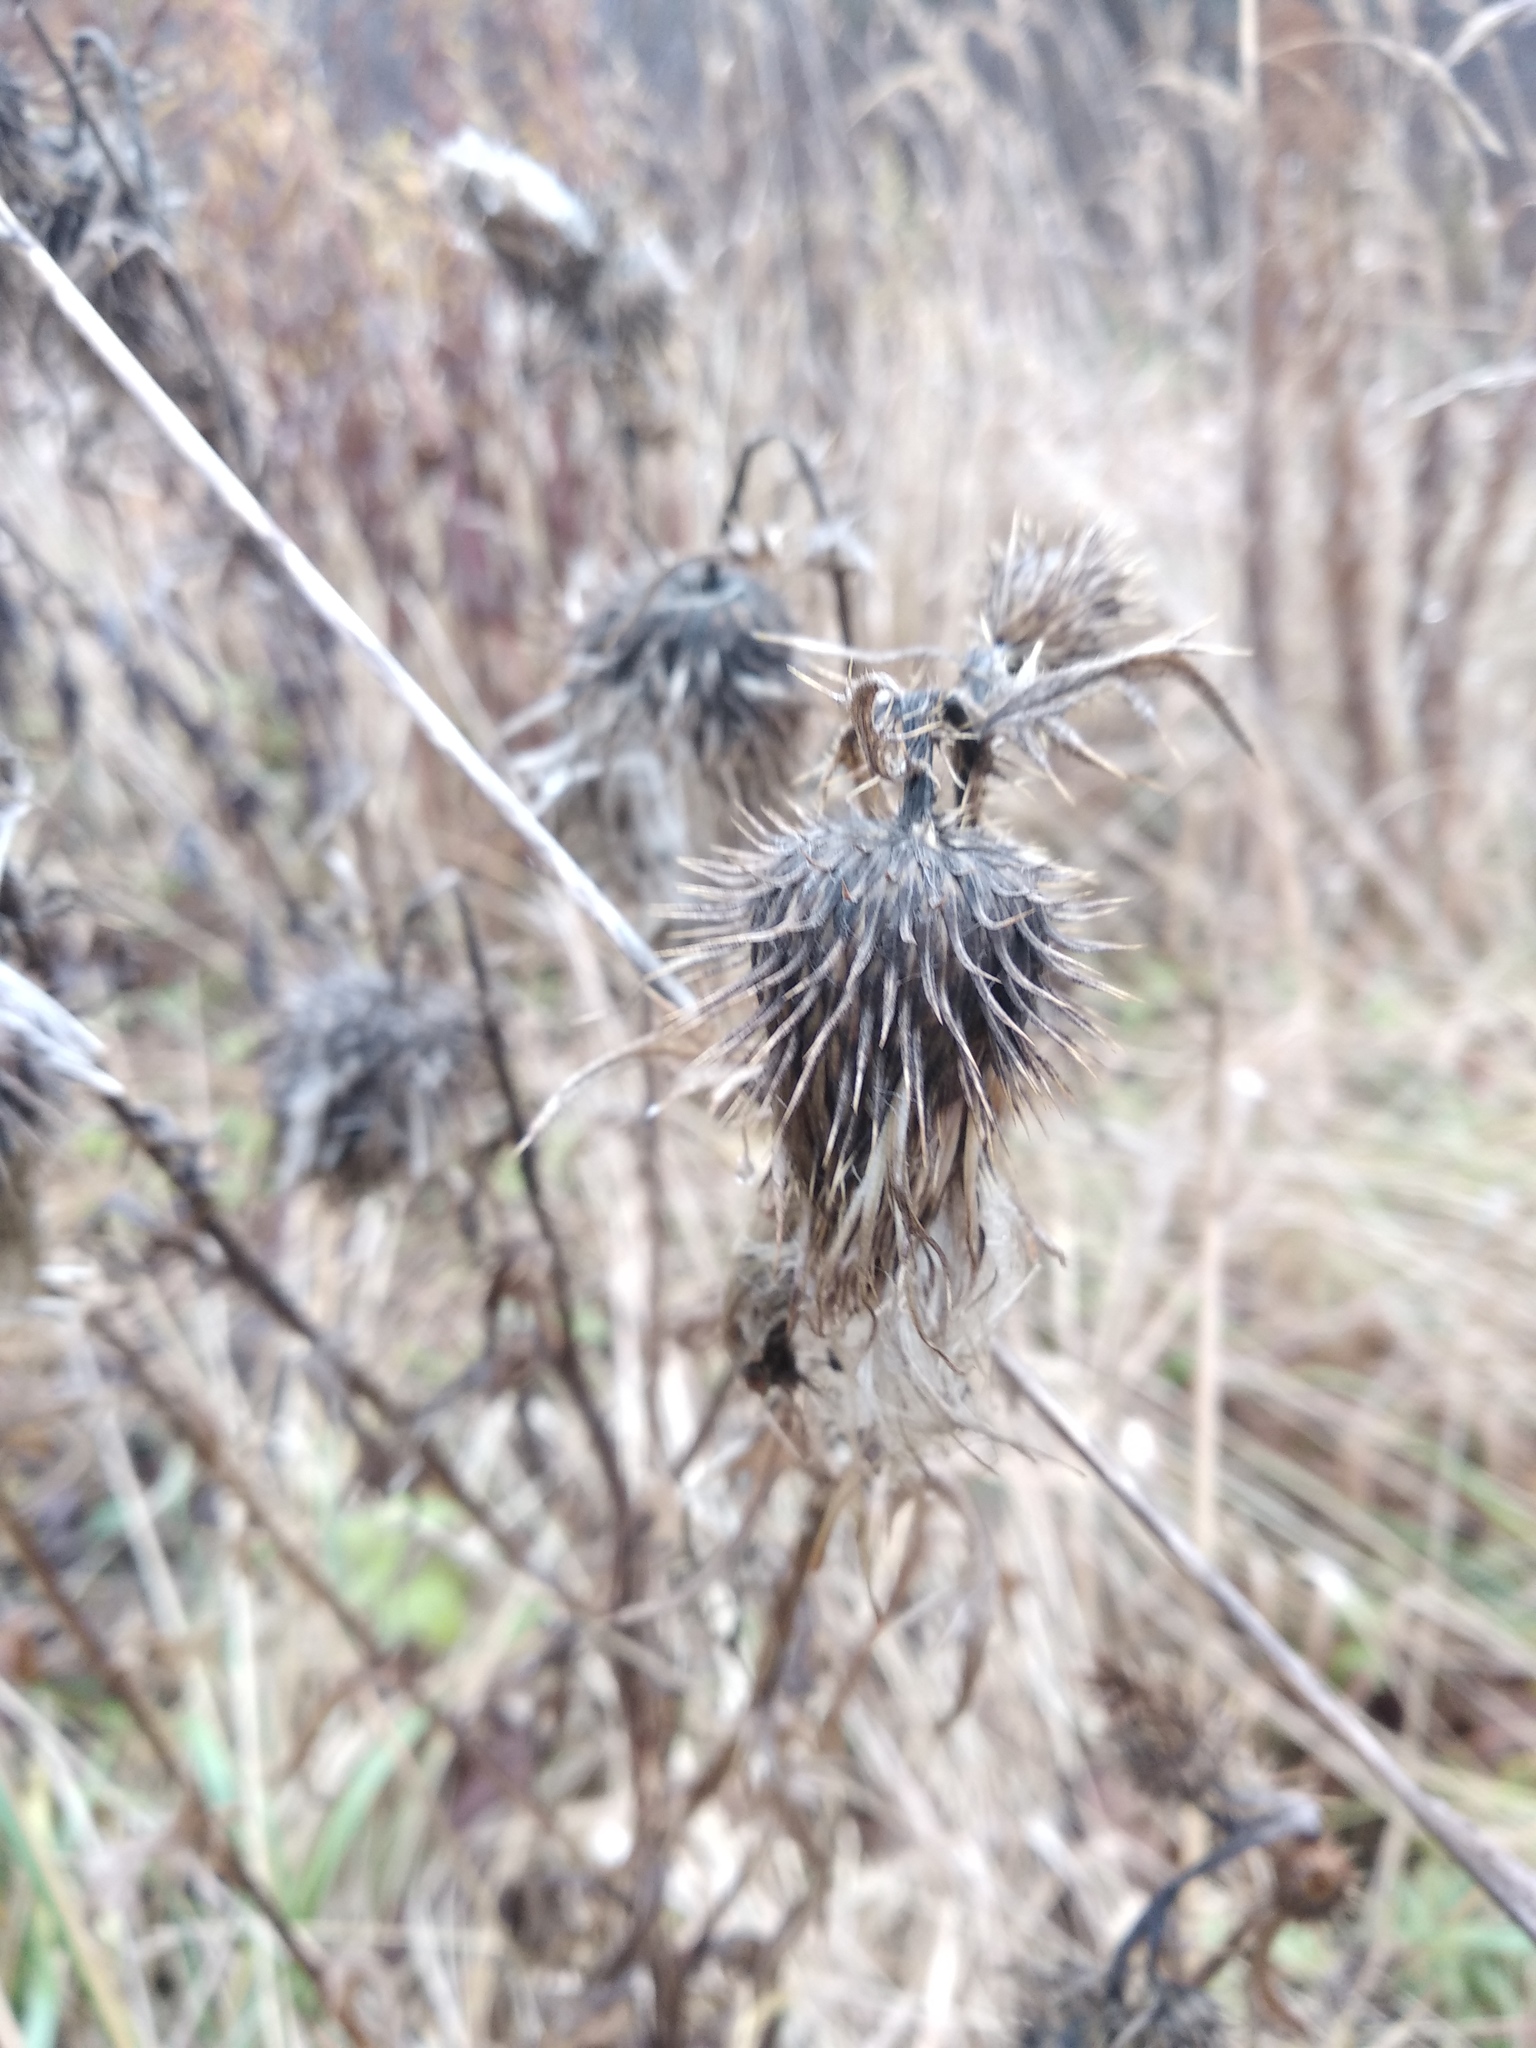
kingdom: Plantae
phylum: Tracheophyta
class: Magnoliopsida
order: Asterales
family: Asteraceae
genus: Cirsium
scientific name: Cirsium vulgare
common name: Bull thistle
